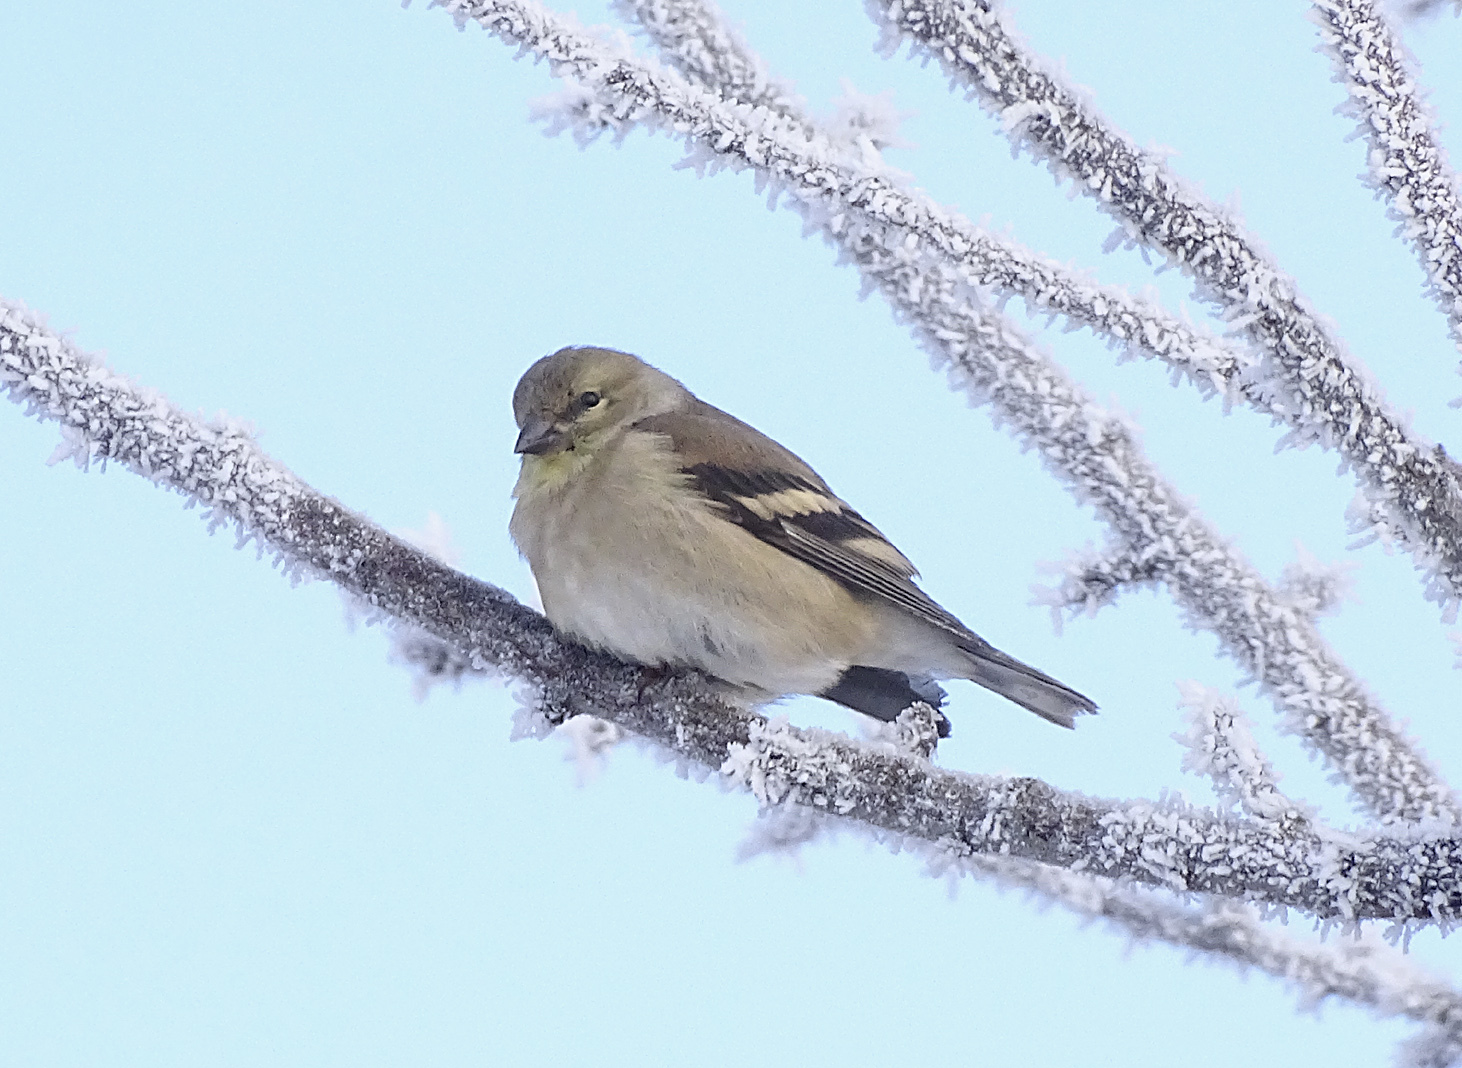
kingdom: Animalia
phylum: Chordata
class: Aves
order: Passeriformes
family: Fringillidae
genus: Spinus
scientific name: Spinus tristis
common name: American goldfinch
